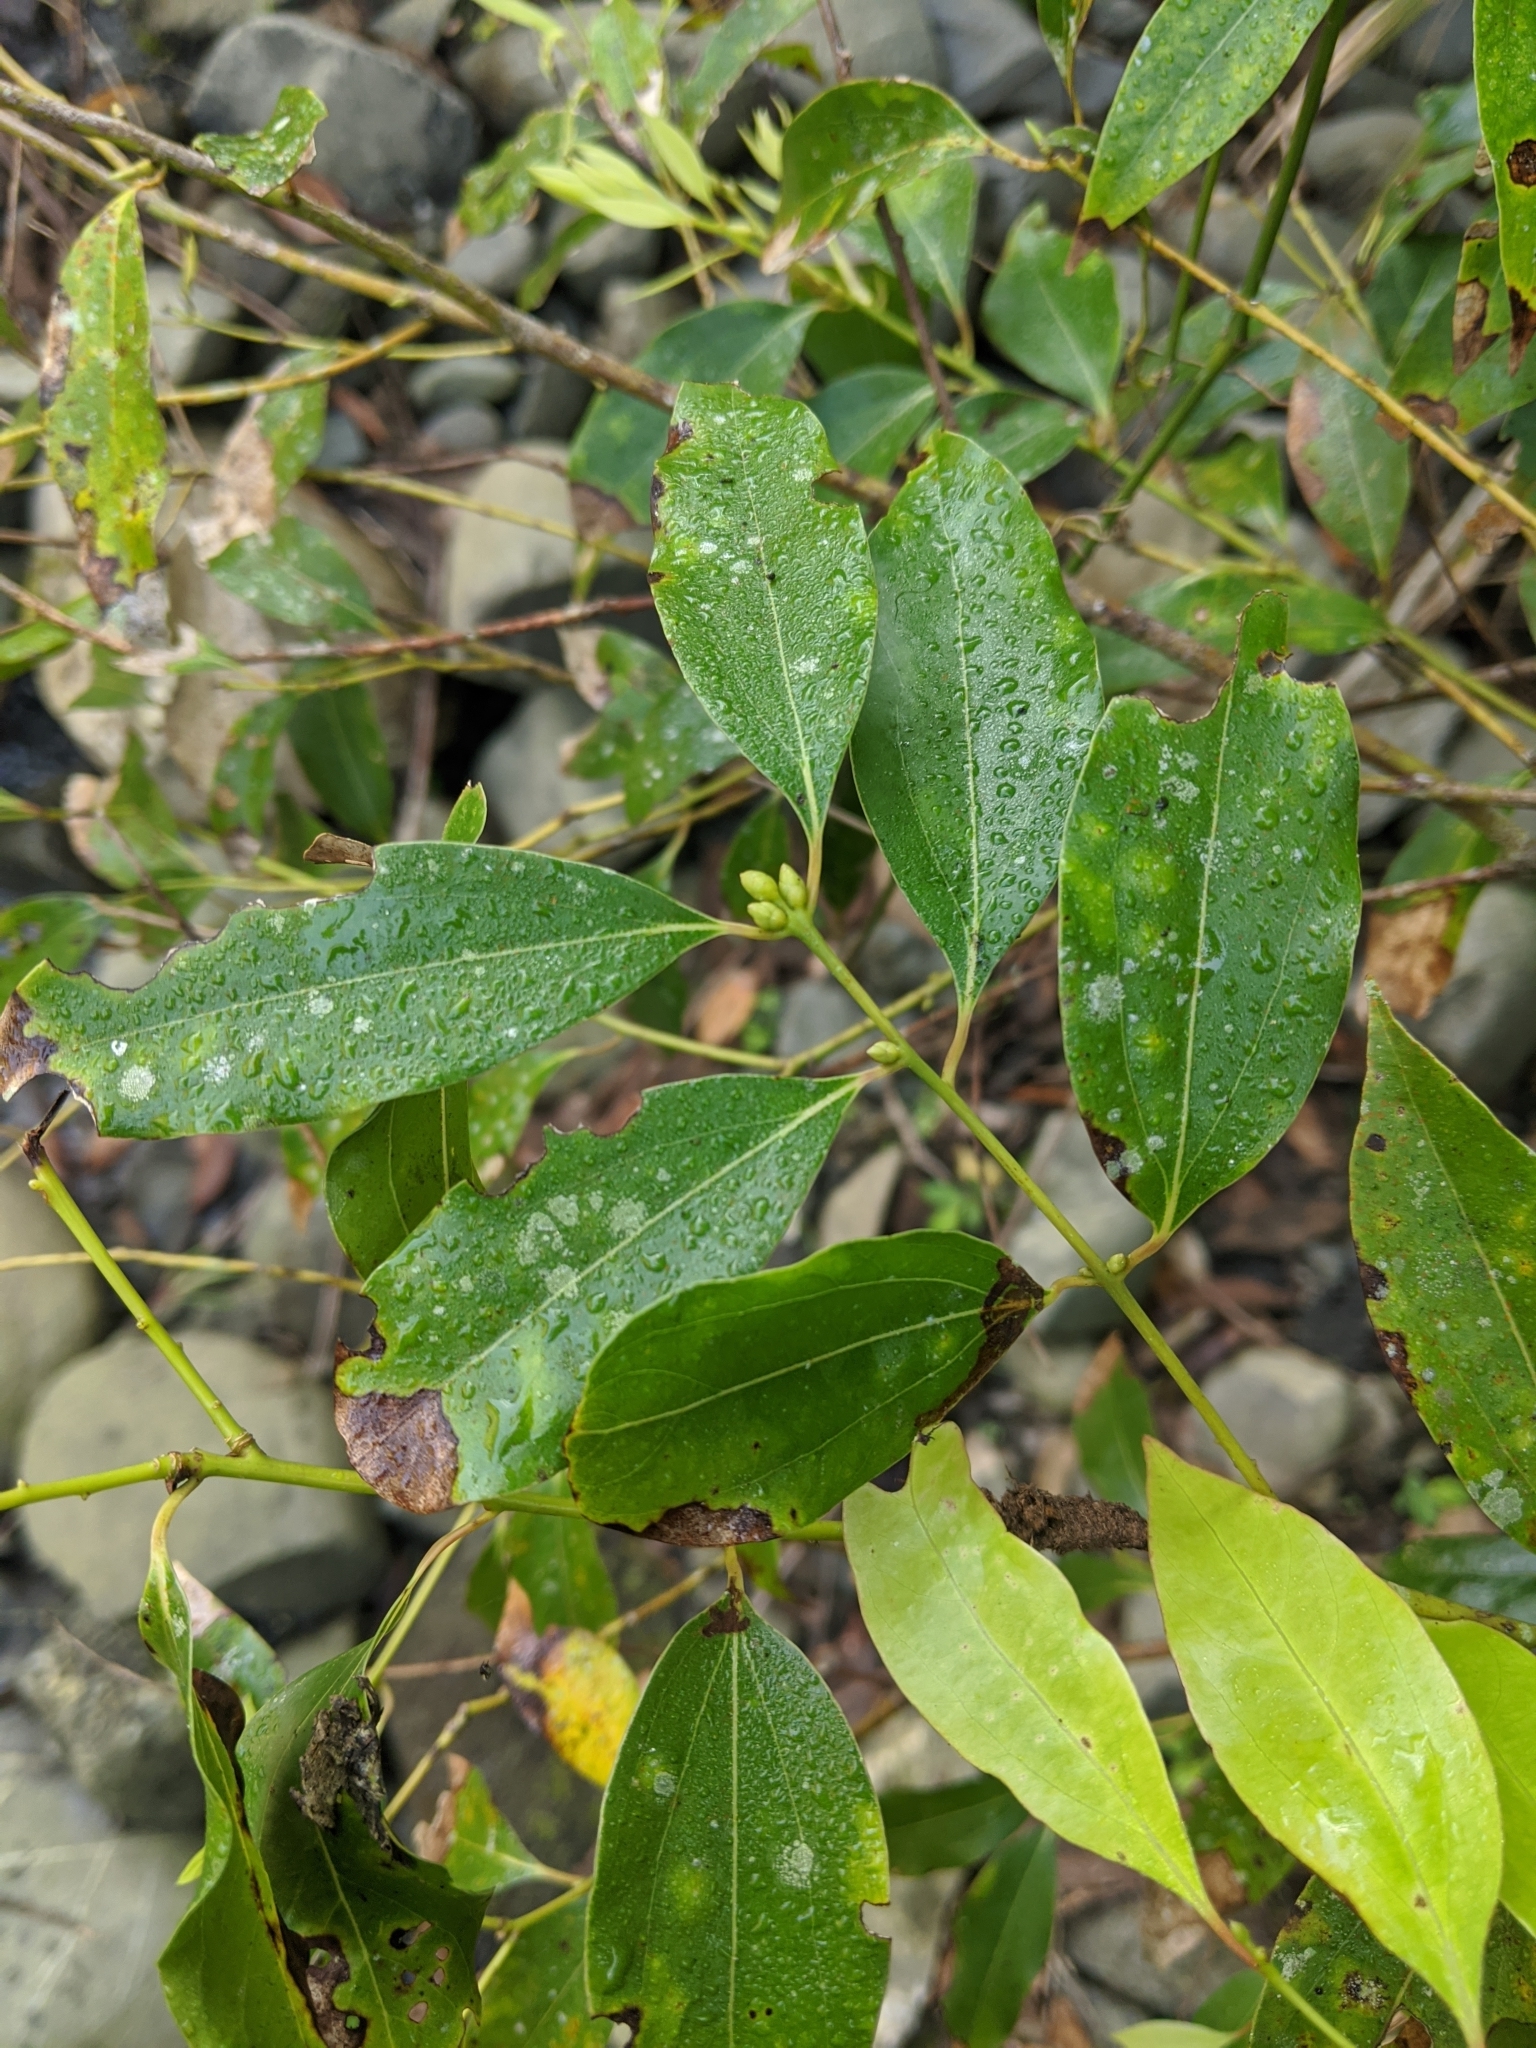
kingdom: Plantae
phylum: Tracheophyta
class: Magnoliopsida
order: Laurales
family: Lauraceae
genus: Cinnamomum
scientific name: Cinnamomum chekiangense
